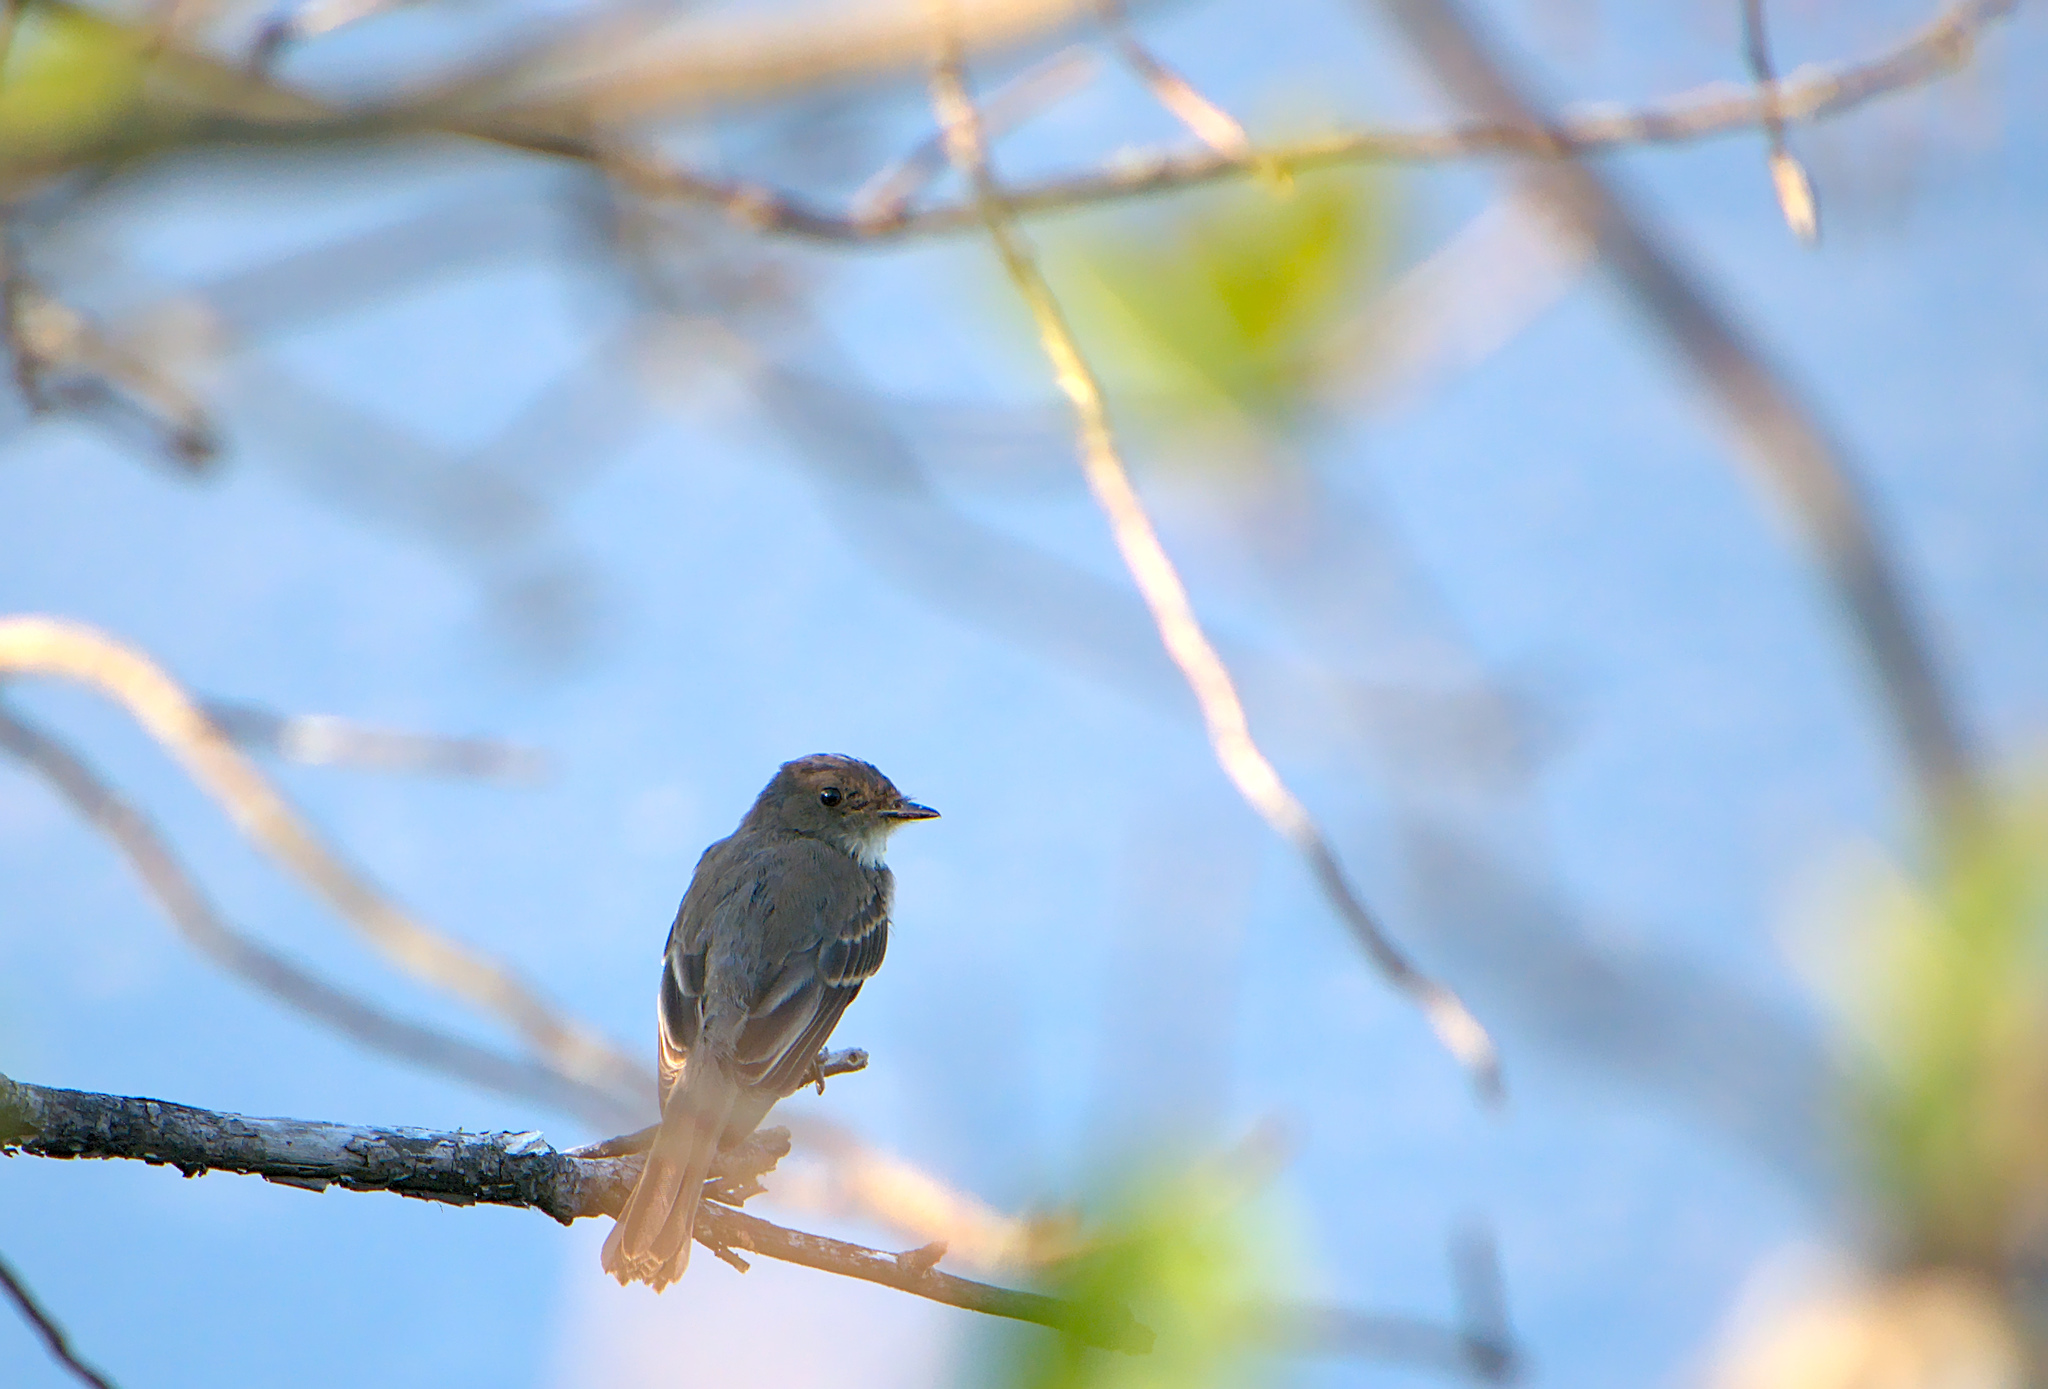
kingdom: Animalia
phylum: Chordata
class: Aves
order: Passeriformes
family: Tyrannidae
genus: Contopus
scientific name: Contopus virens
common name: Eastern wood-pewee
